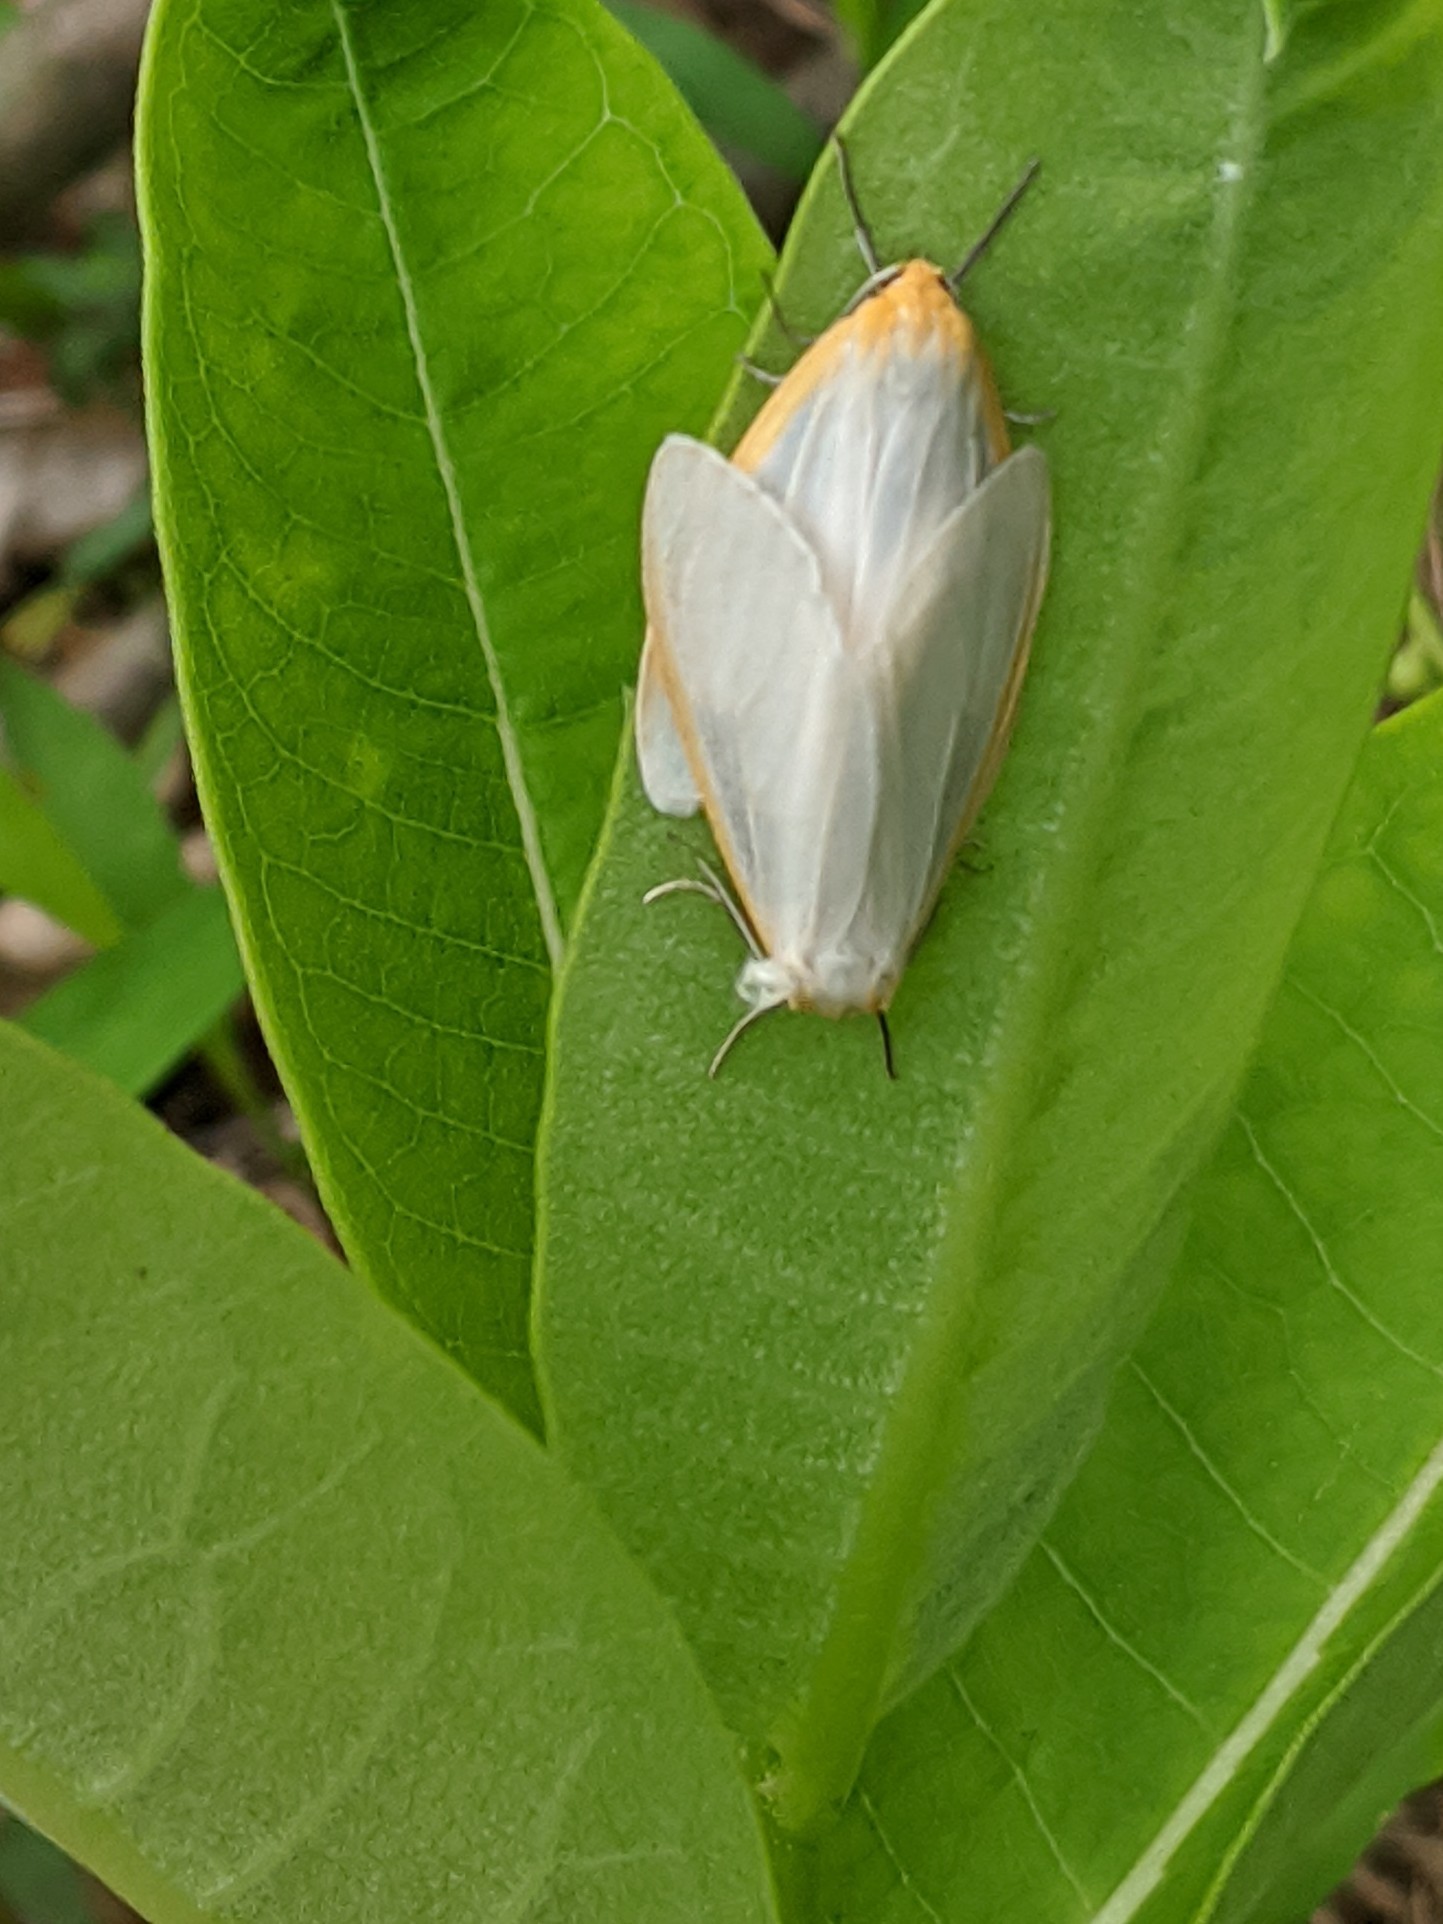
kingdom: Animalia
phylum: Arthropoda
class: Insecta
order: Lepidoptera
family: Erebidae
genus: Cycnia
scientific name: Cycnia tenera
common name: Delicate cycnia moth
